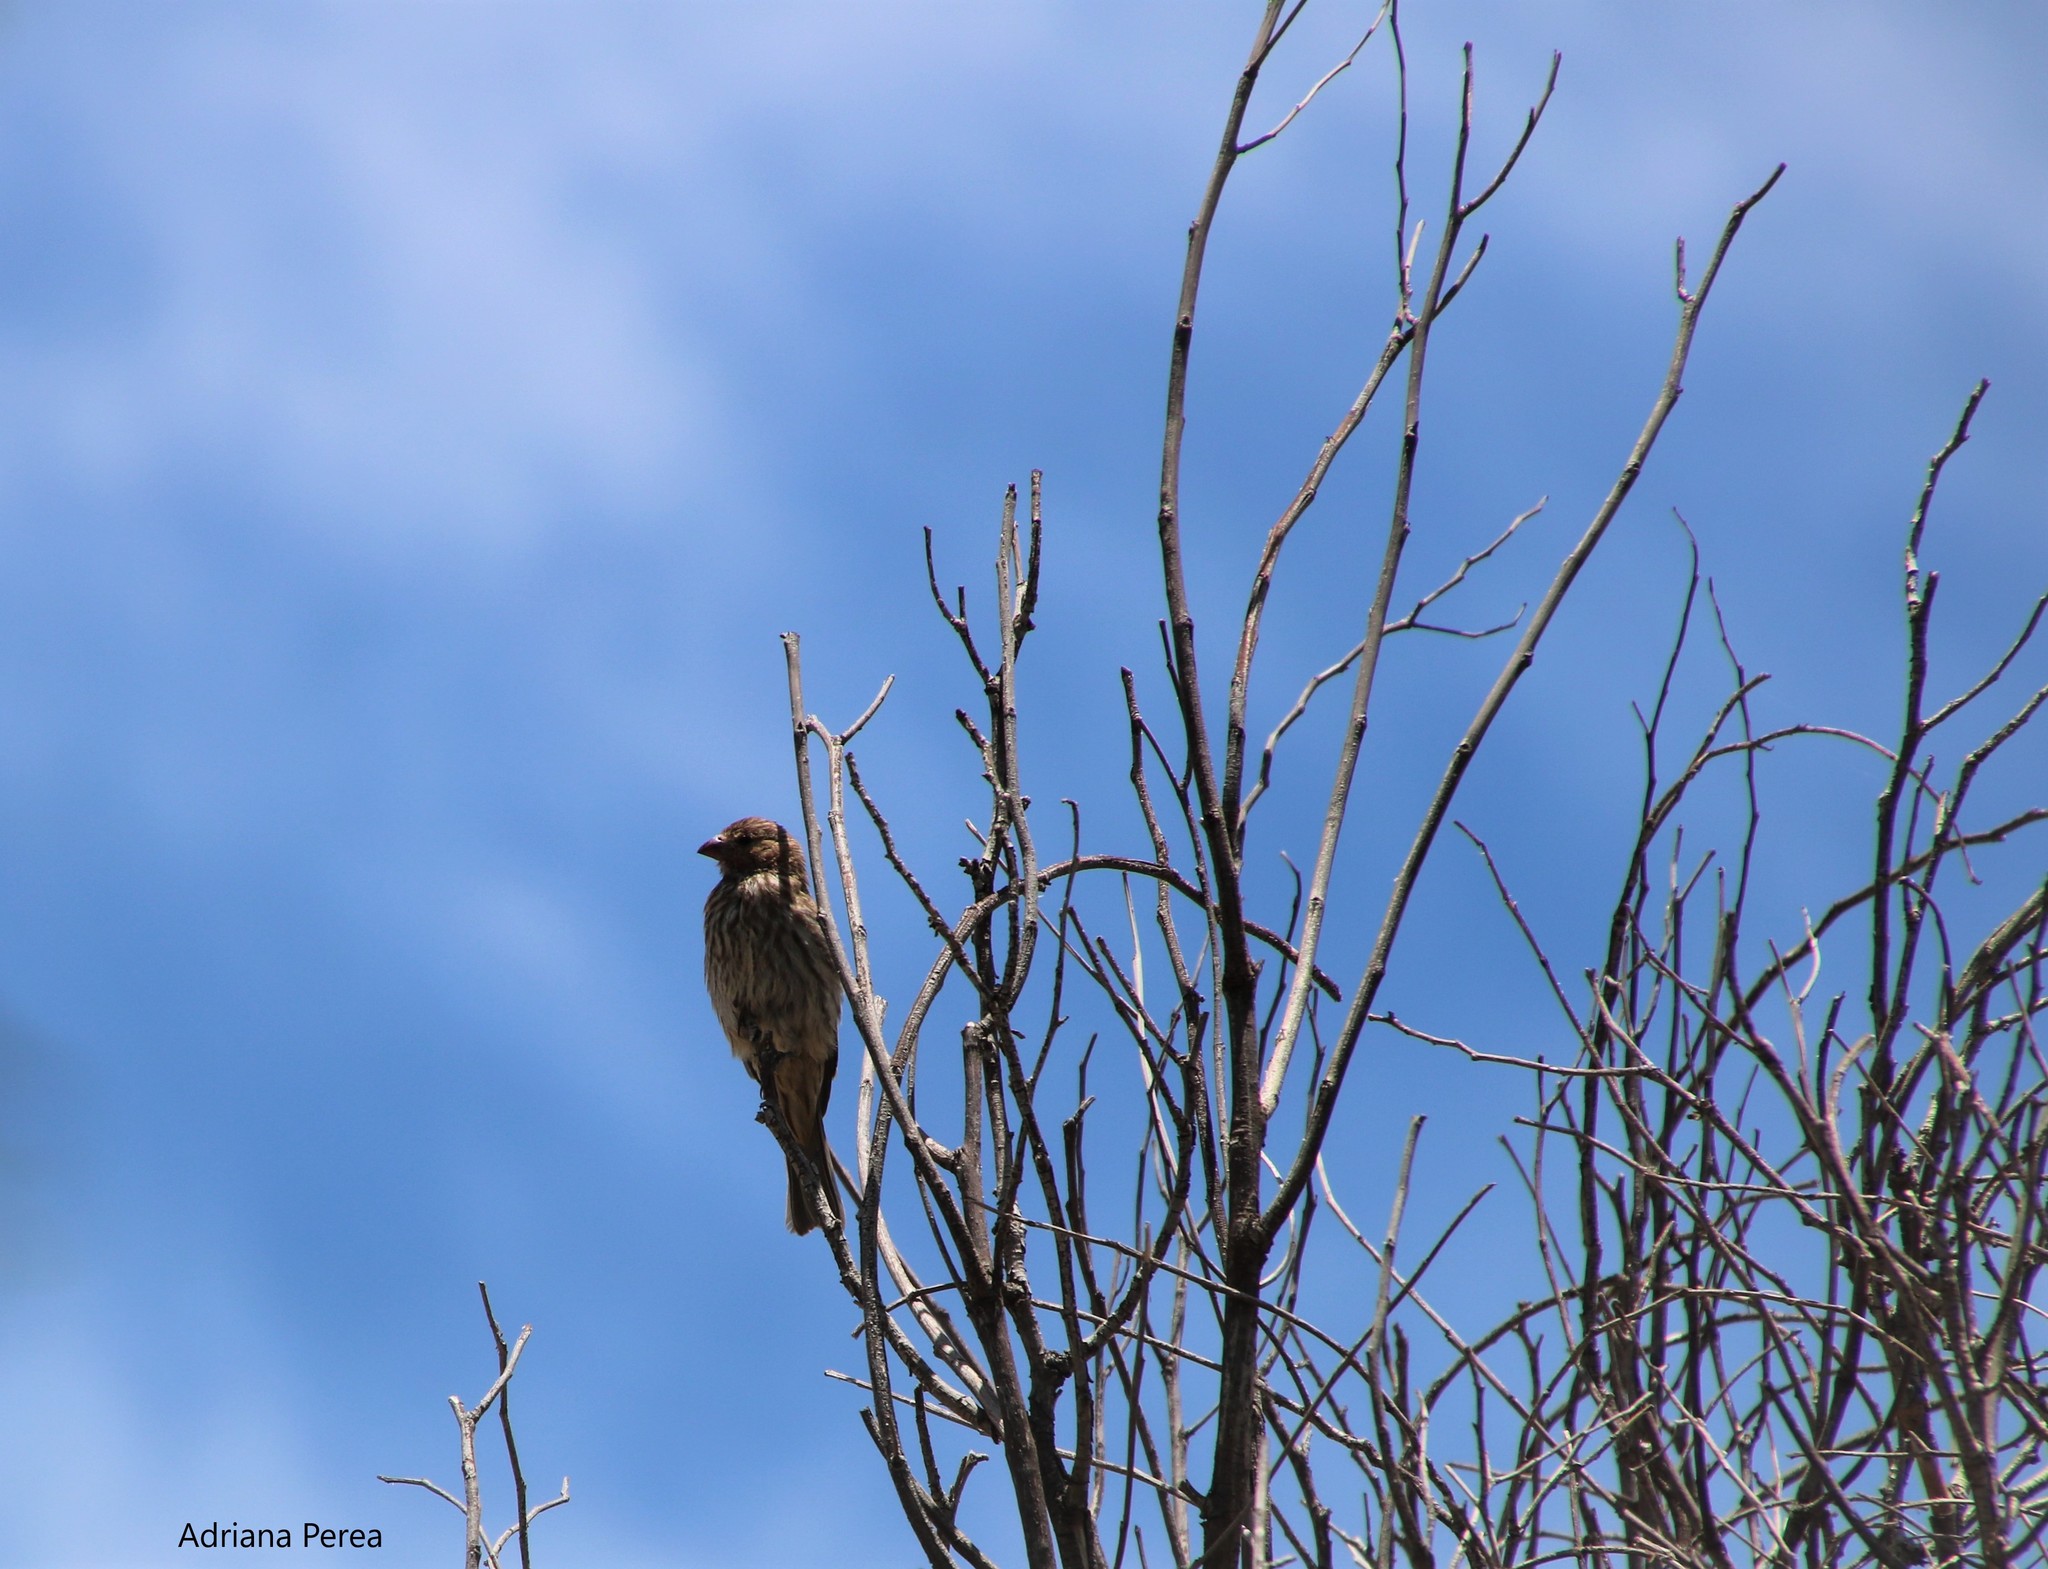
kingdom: Animalia
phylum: Chordata
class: Aves
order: Passeriformes
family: Fringillidae
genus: Haemorhous
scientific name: Haemorhous mexicanus
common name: House finch
